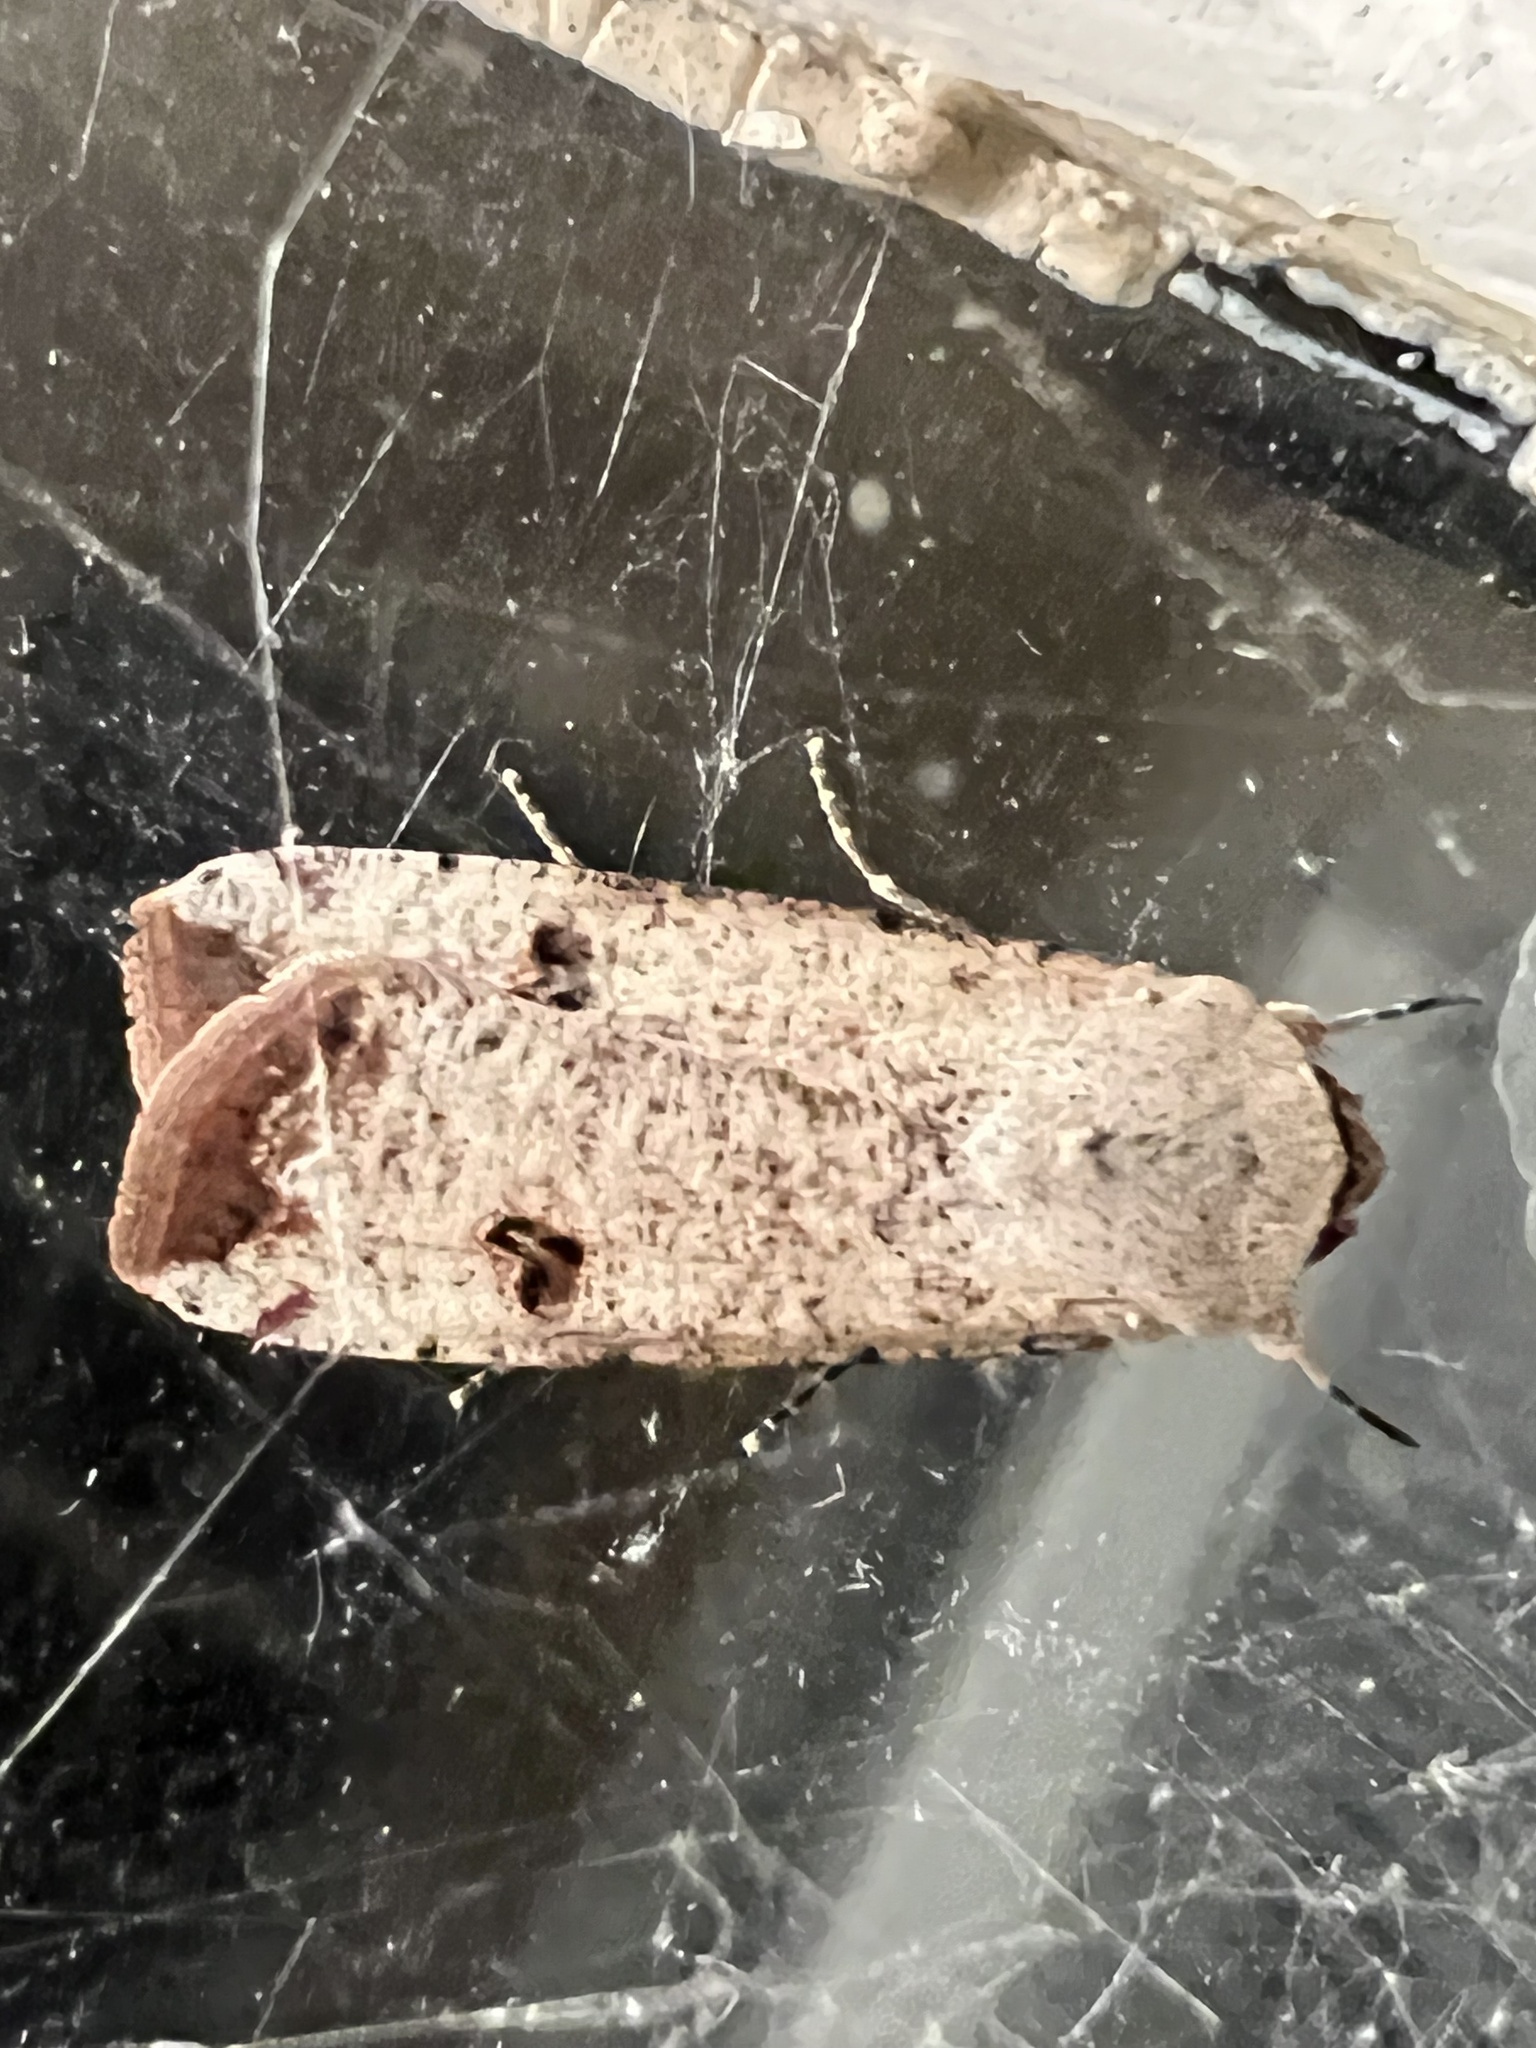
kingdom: Animalia
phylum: Arthropoda
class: Insecta
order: Lepidoptera
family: Noctuidae
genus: Anicla
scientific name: Anicla infecta
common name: Green cutworm
